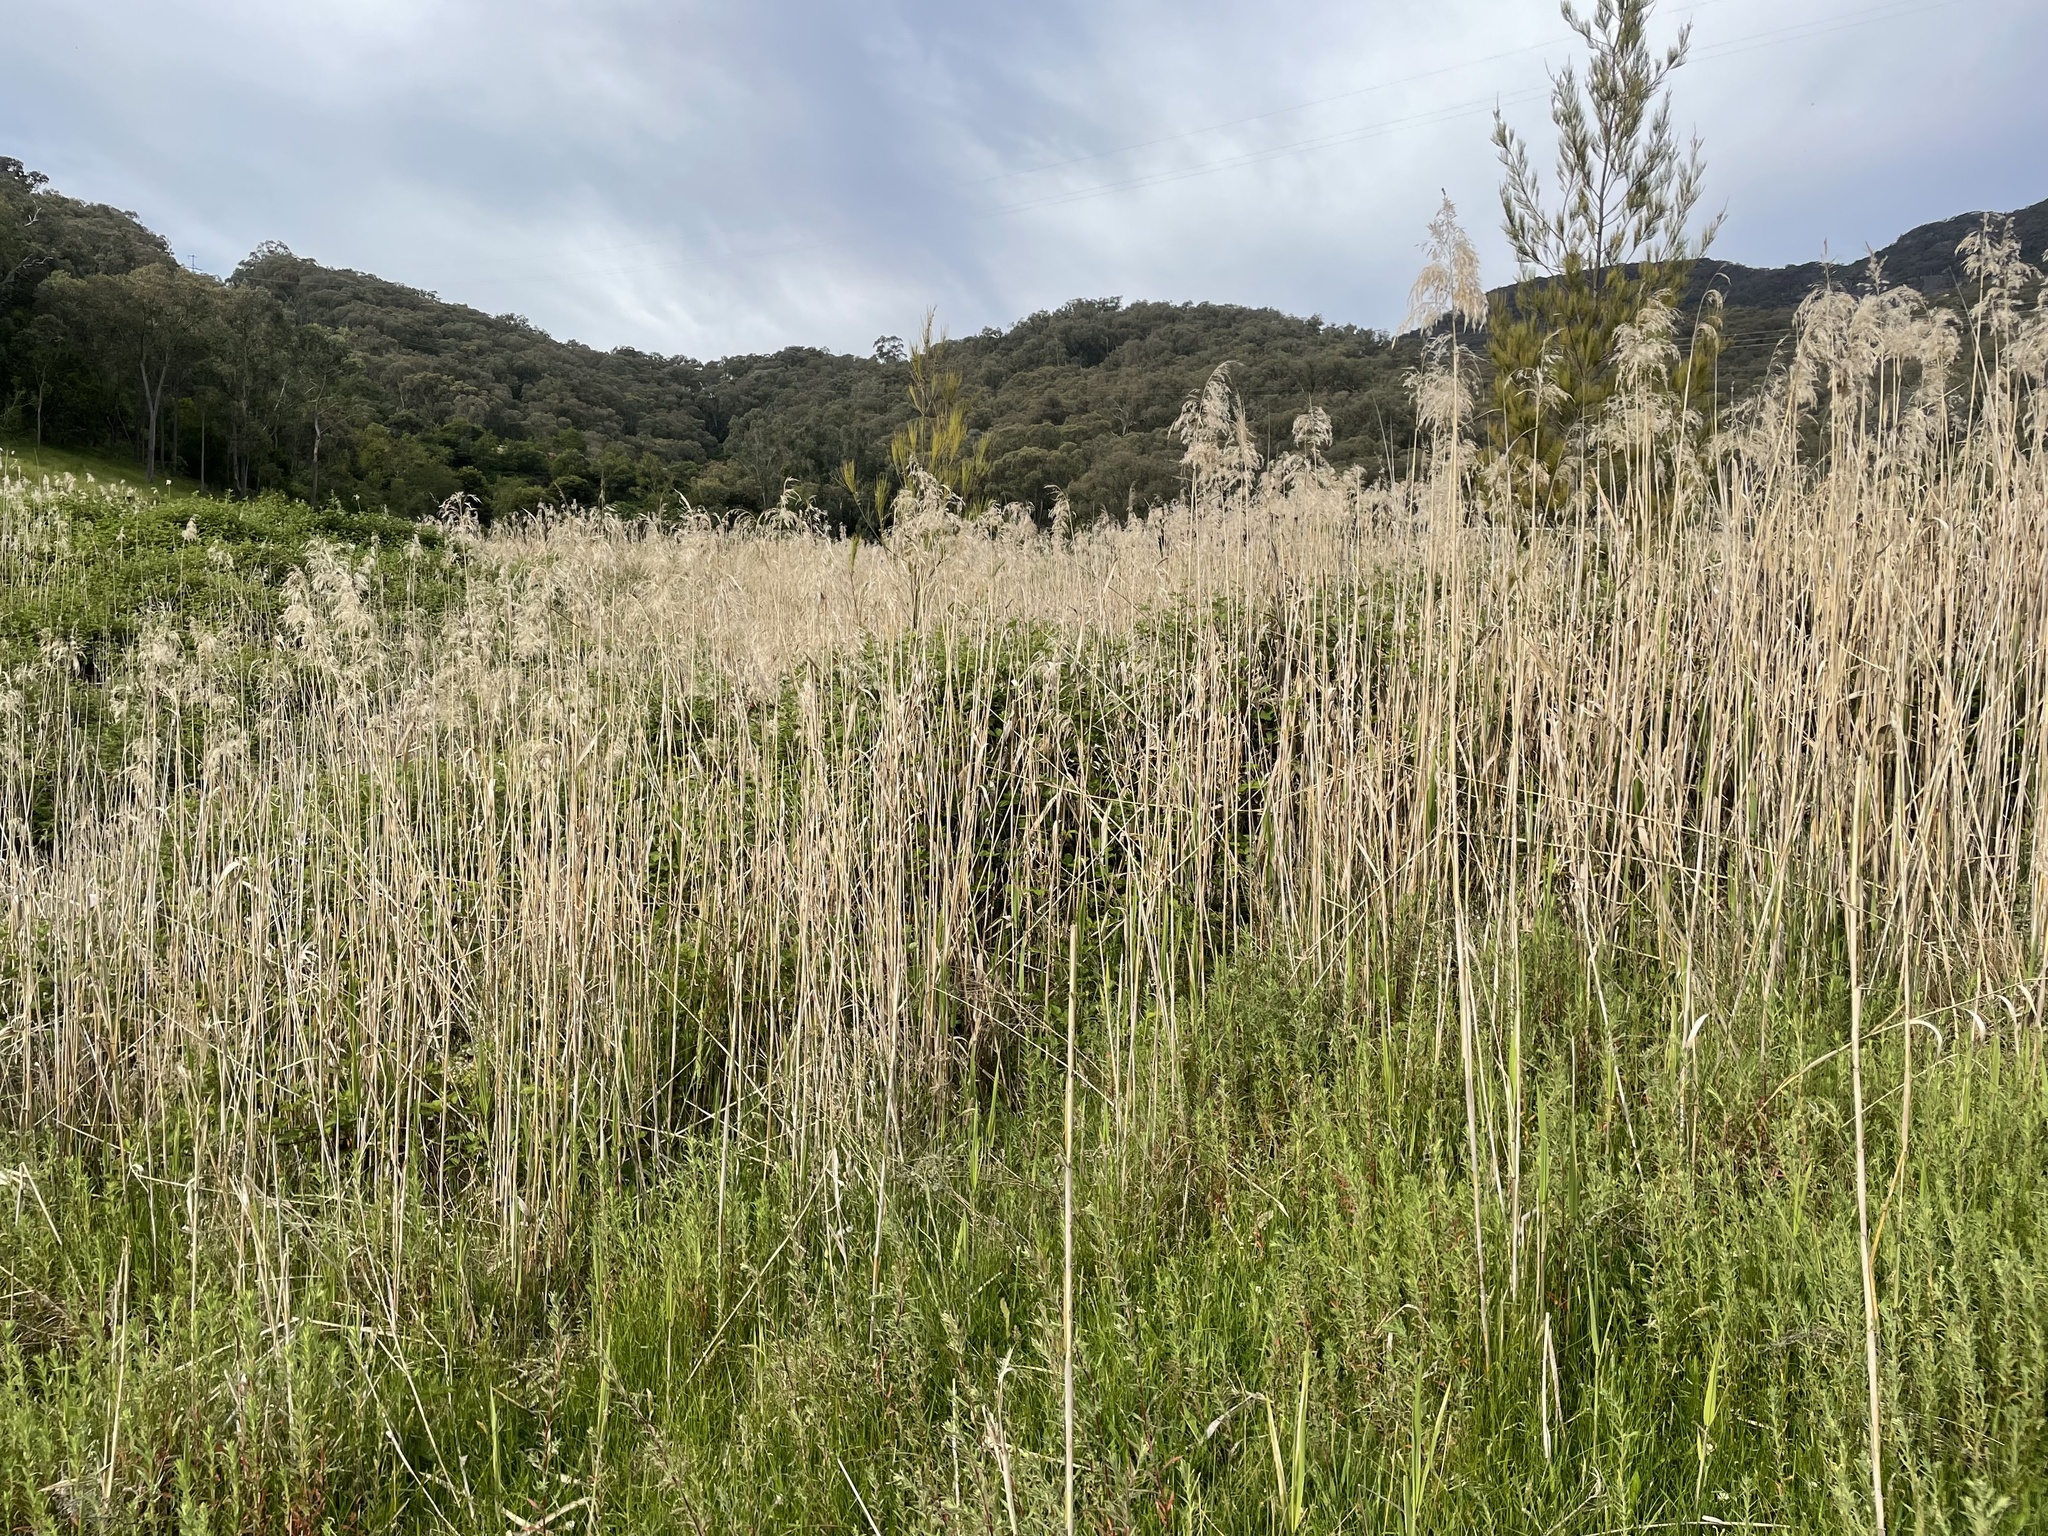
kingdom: Plantae
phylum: Tracheophyta
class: Liliopsida
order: Poales
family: Poaceae
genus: Phragmites
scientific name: Phragmites australis
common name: Common reed
